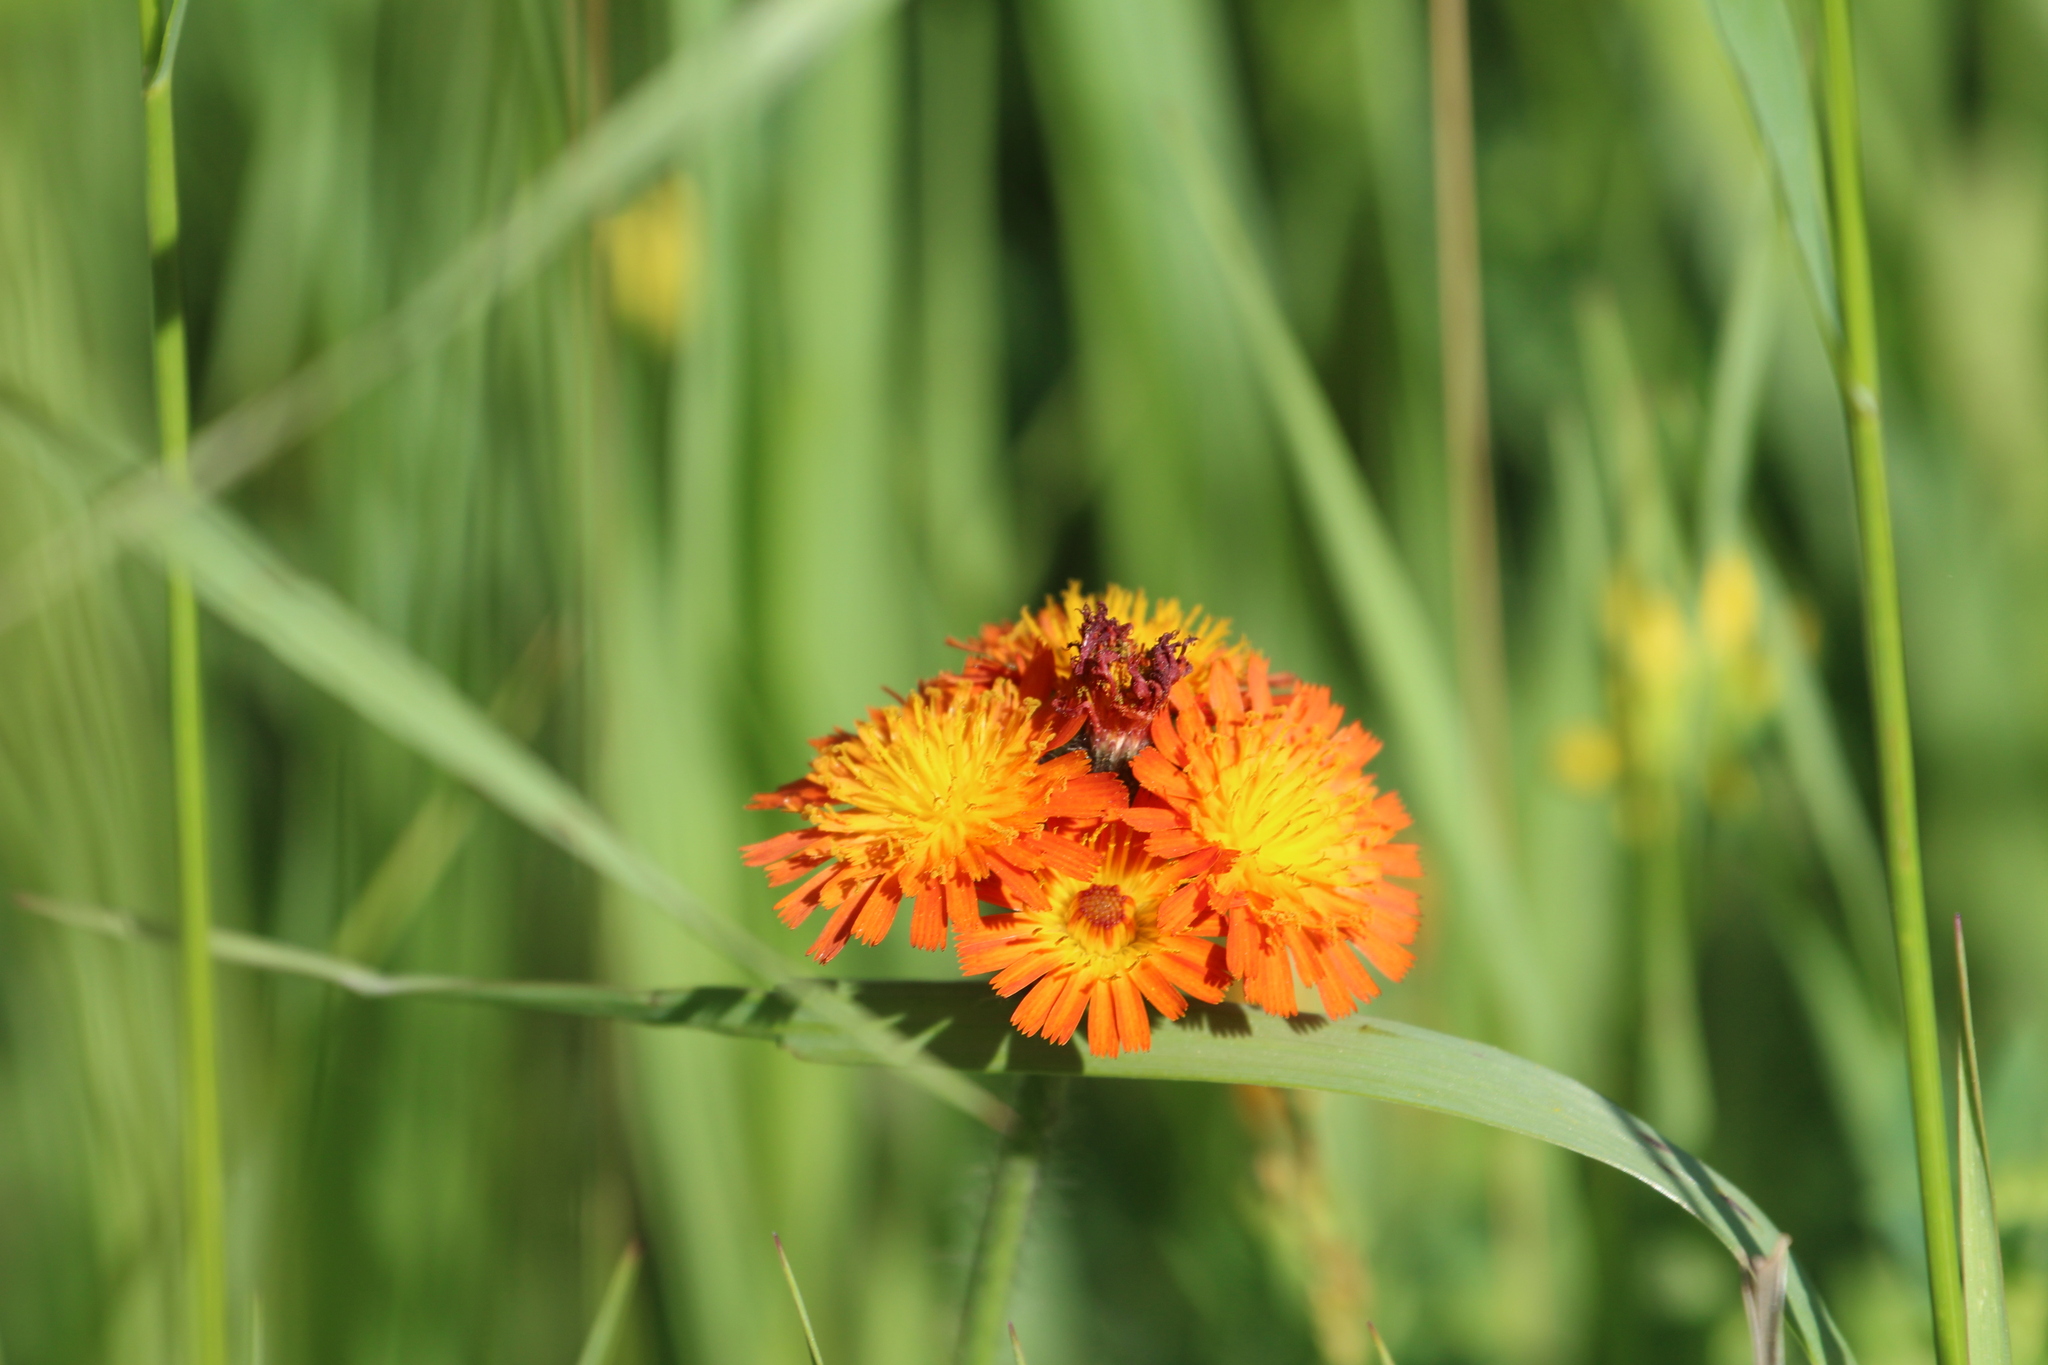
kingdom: Plantae
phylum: Tracheophyta
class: Magnoliopsida
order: Asterales
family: Asteraceae
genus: Pilosella
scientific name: Pilosella aurantiaca
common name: Fox-and-cubs
